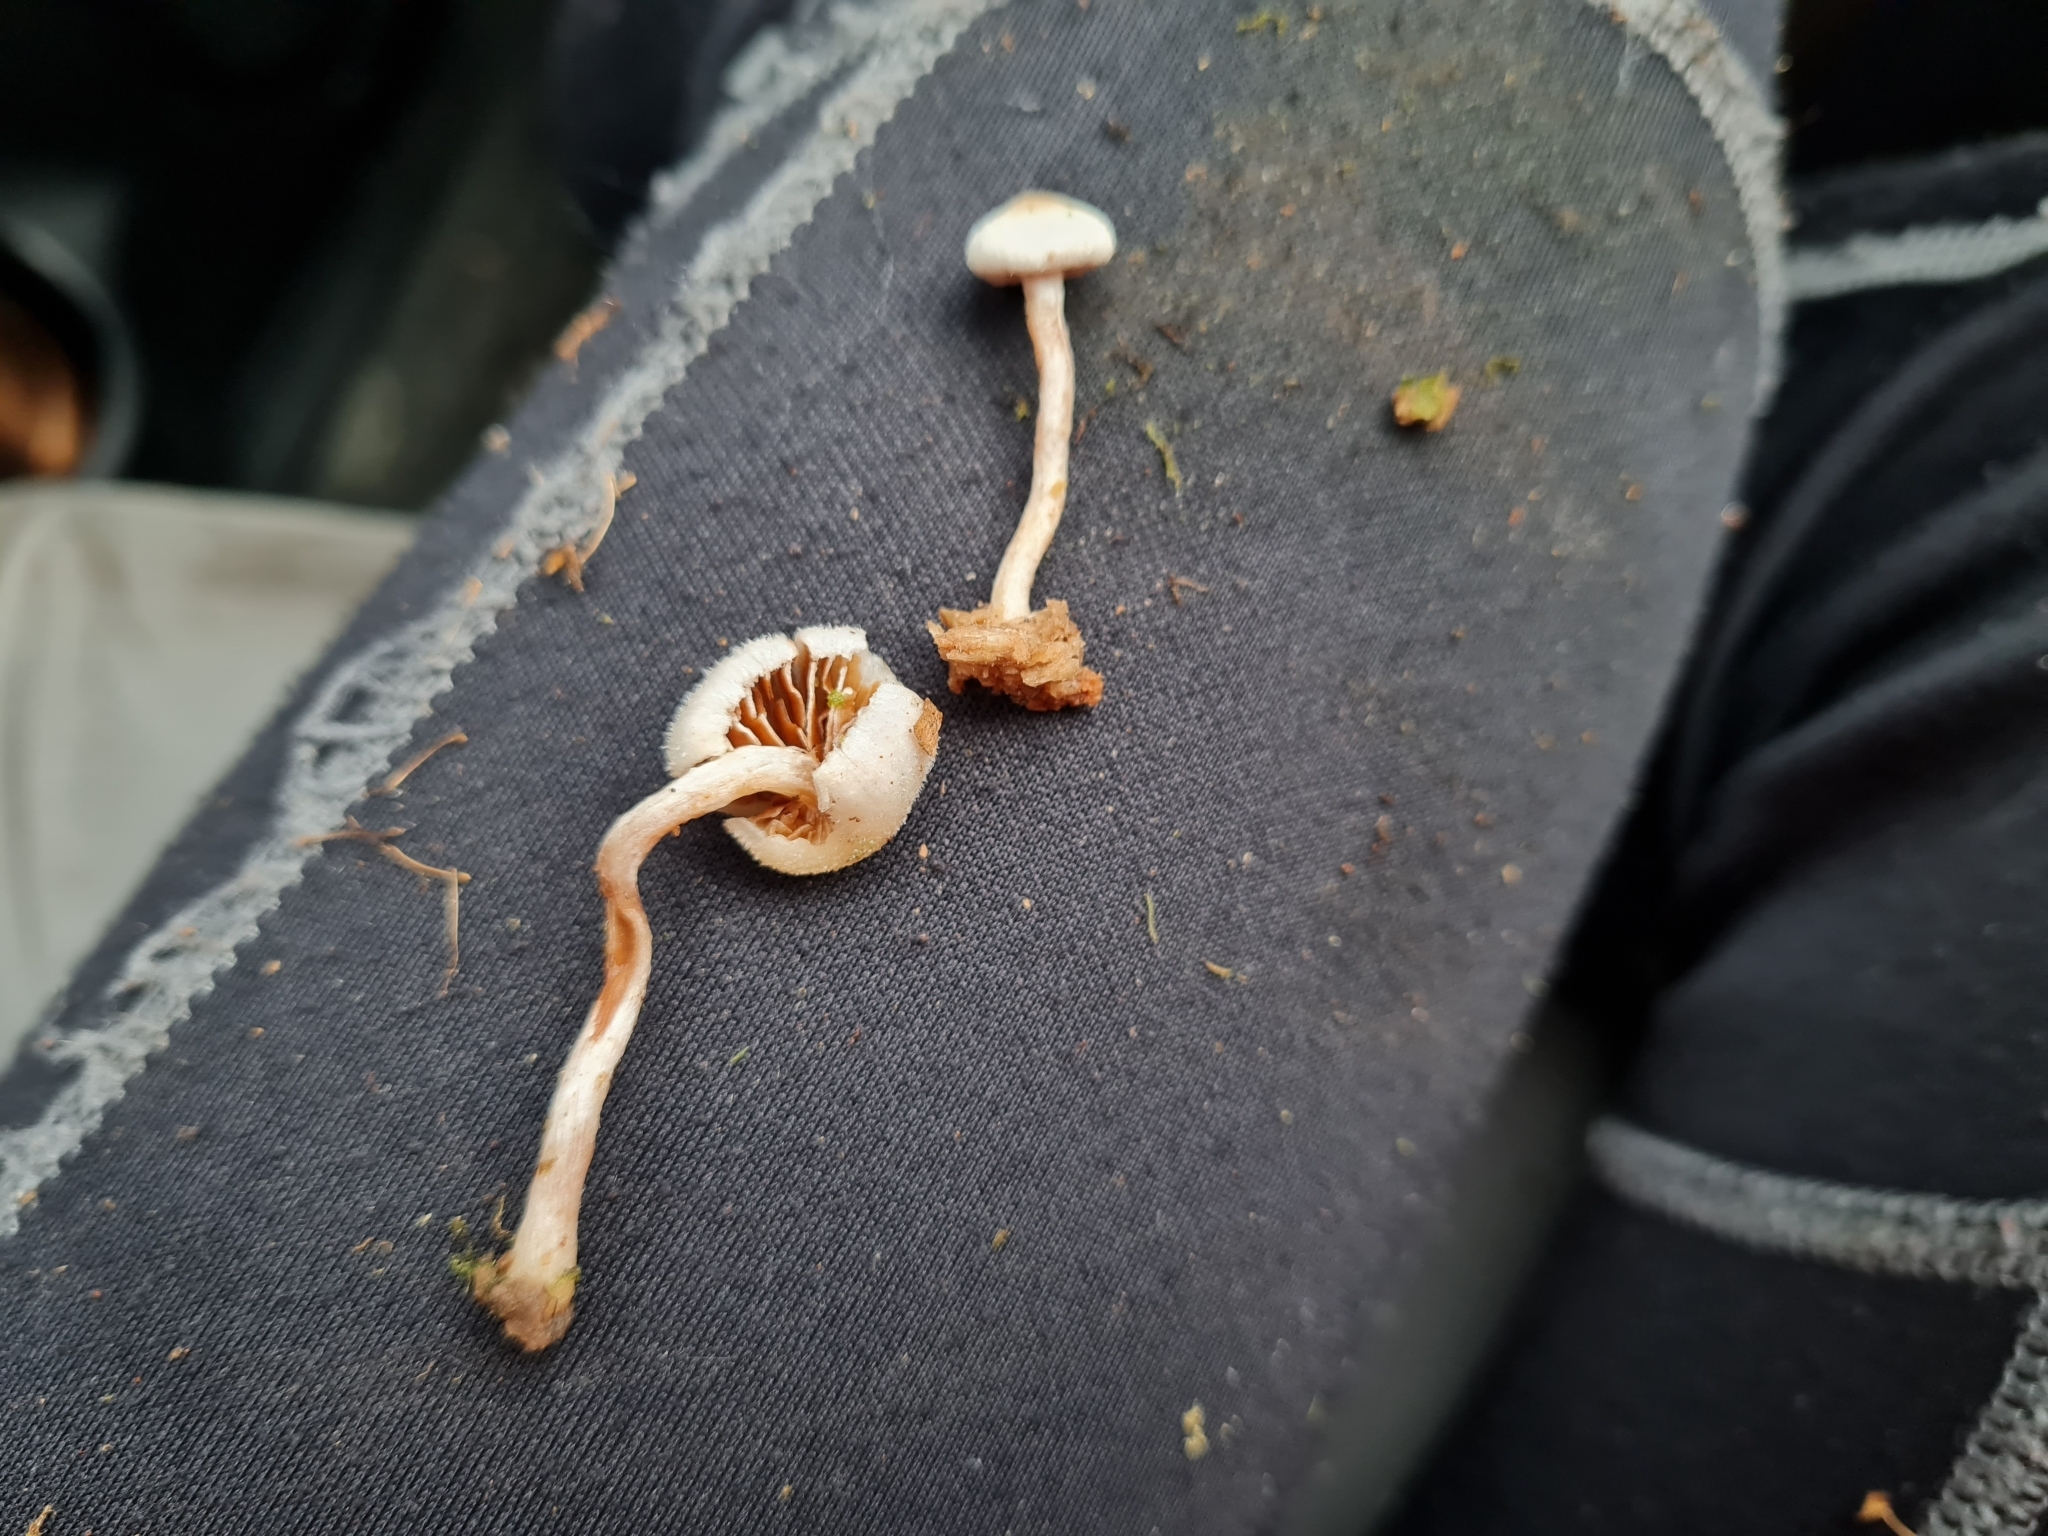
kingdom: Fungi
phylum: Basidiomycota
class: Agaricomycetes
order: Agaricales
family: Bolbitiaceae
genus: Tympanella
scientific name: Tympanella galanthina
